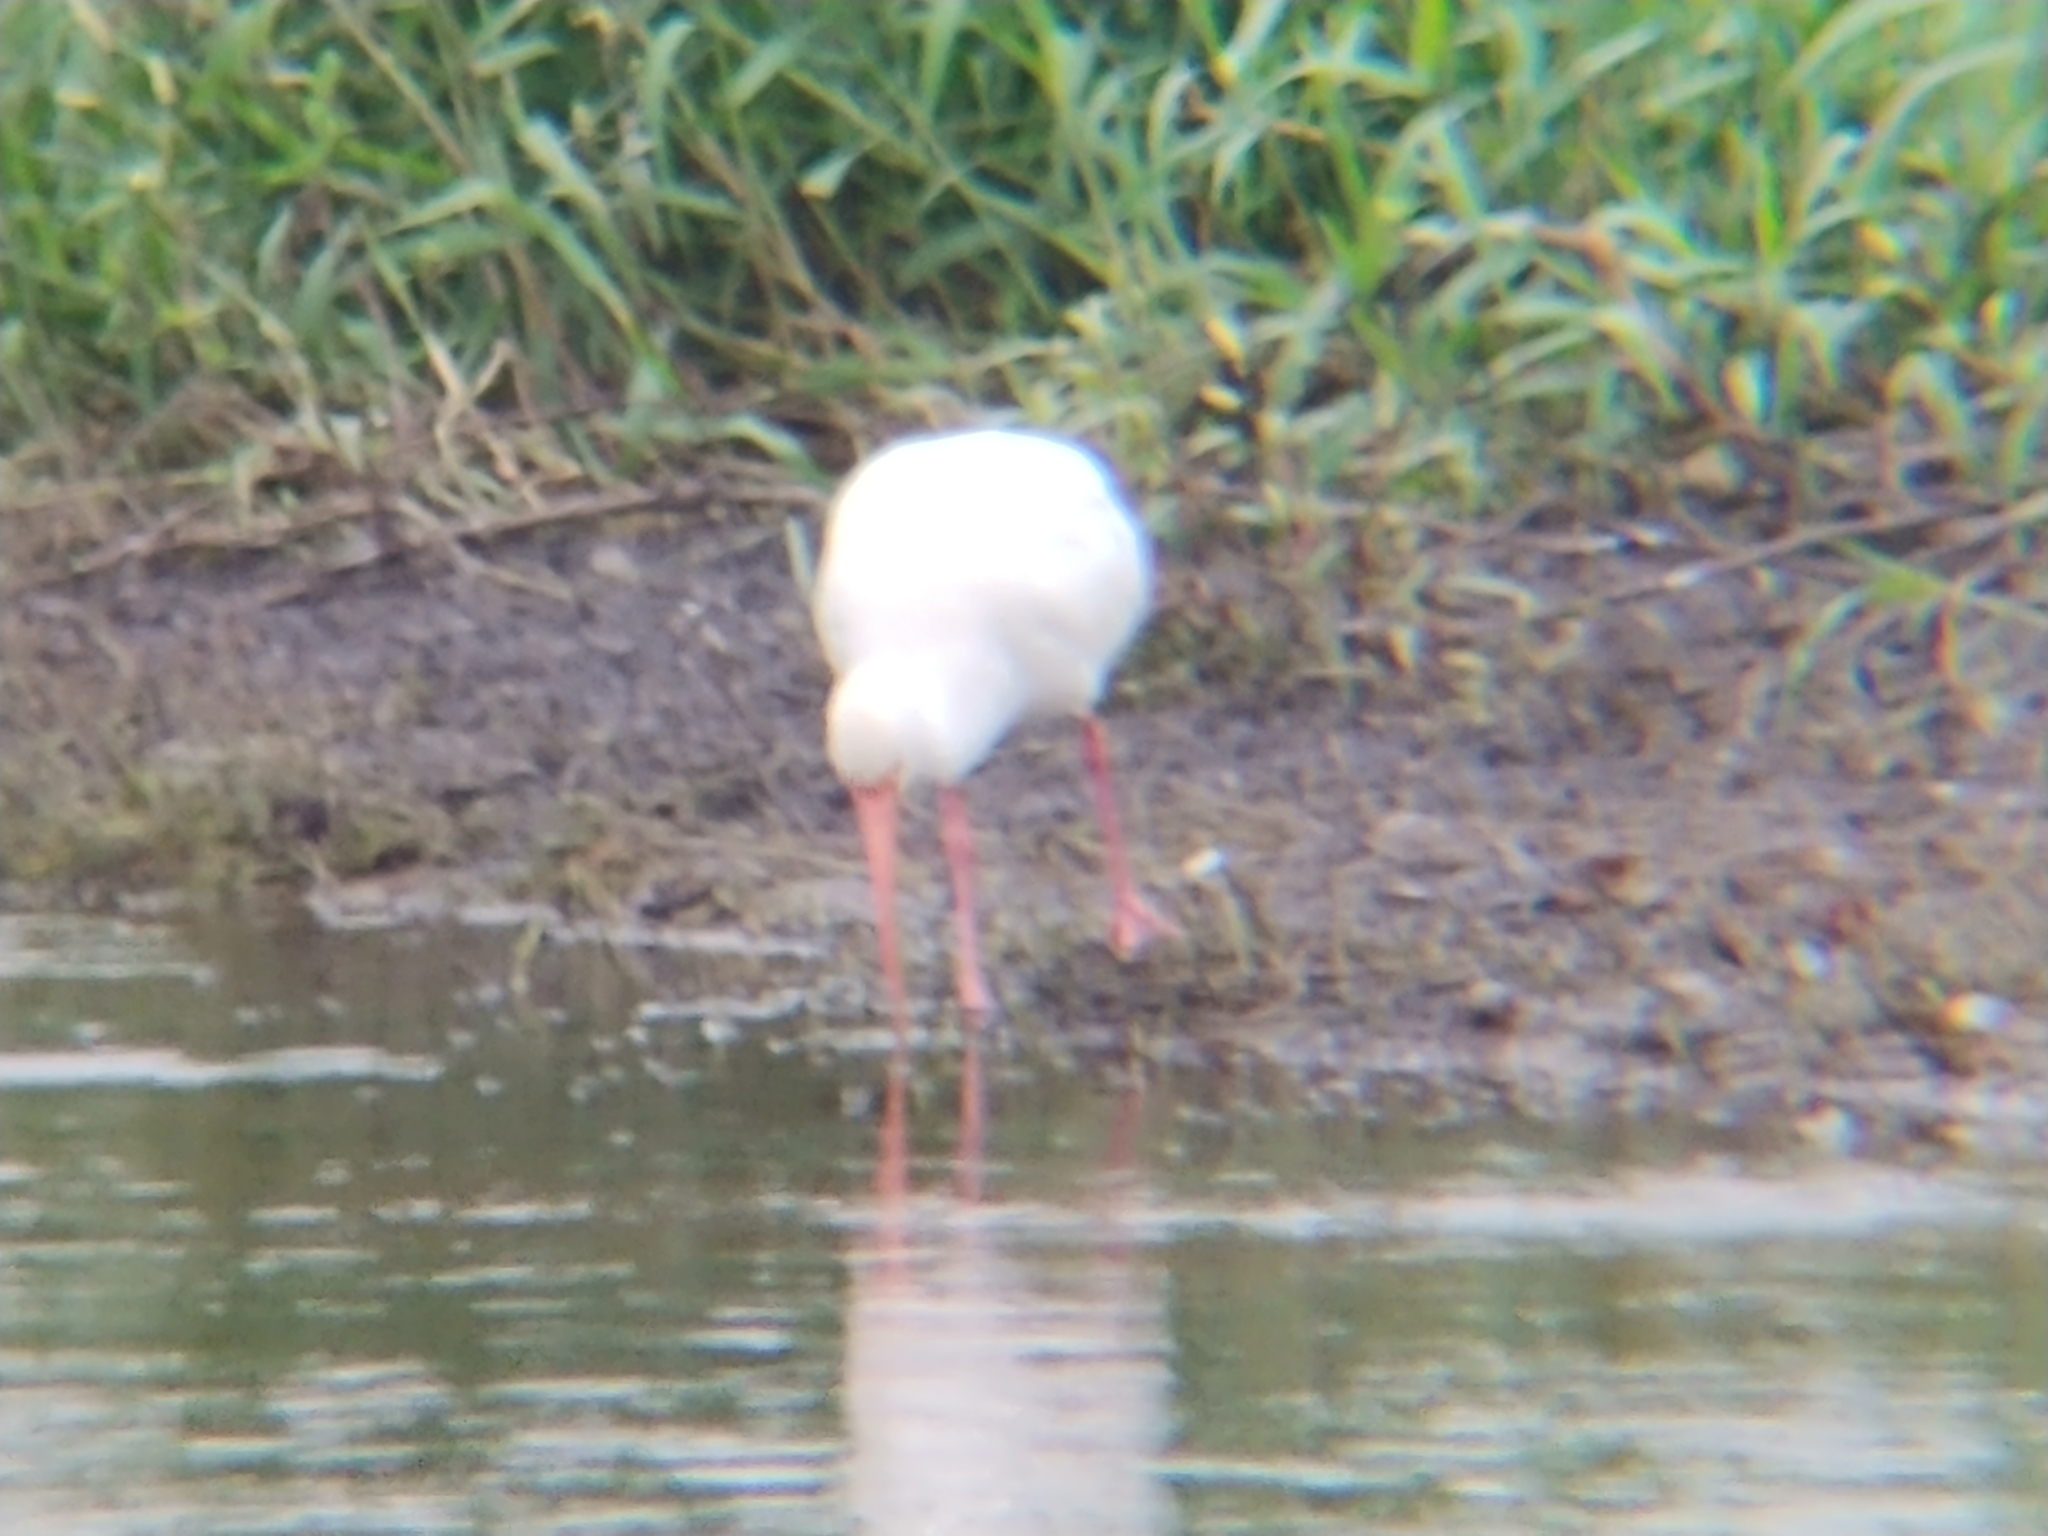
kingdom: Animalia
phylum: Chordata
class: Aves
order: Pelecaniformes
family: Threskiornithidae
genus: Eudocimus
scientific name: Eudocimus albus
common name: White ibis
